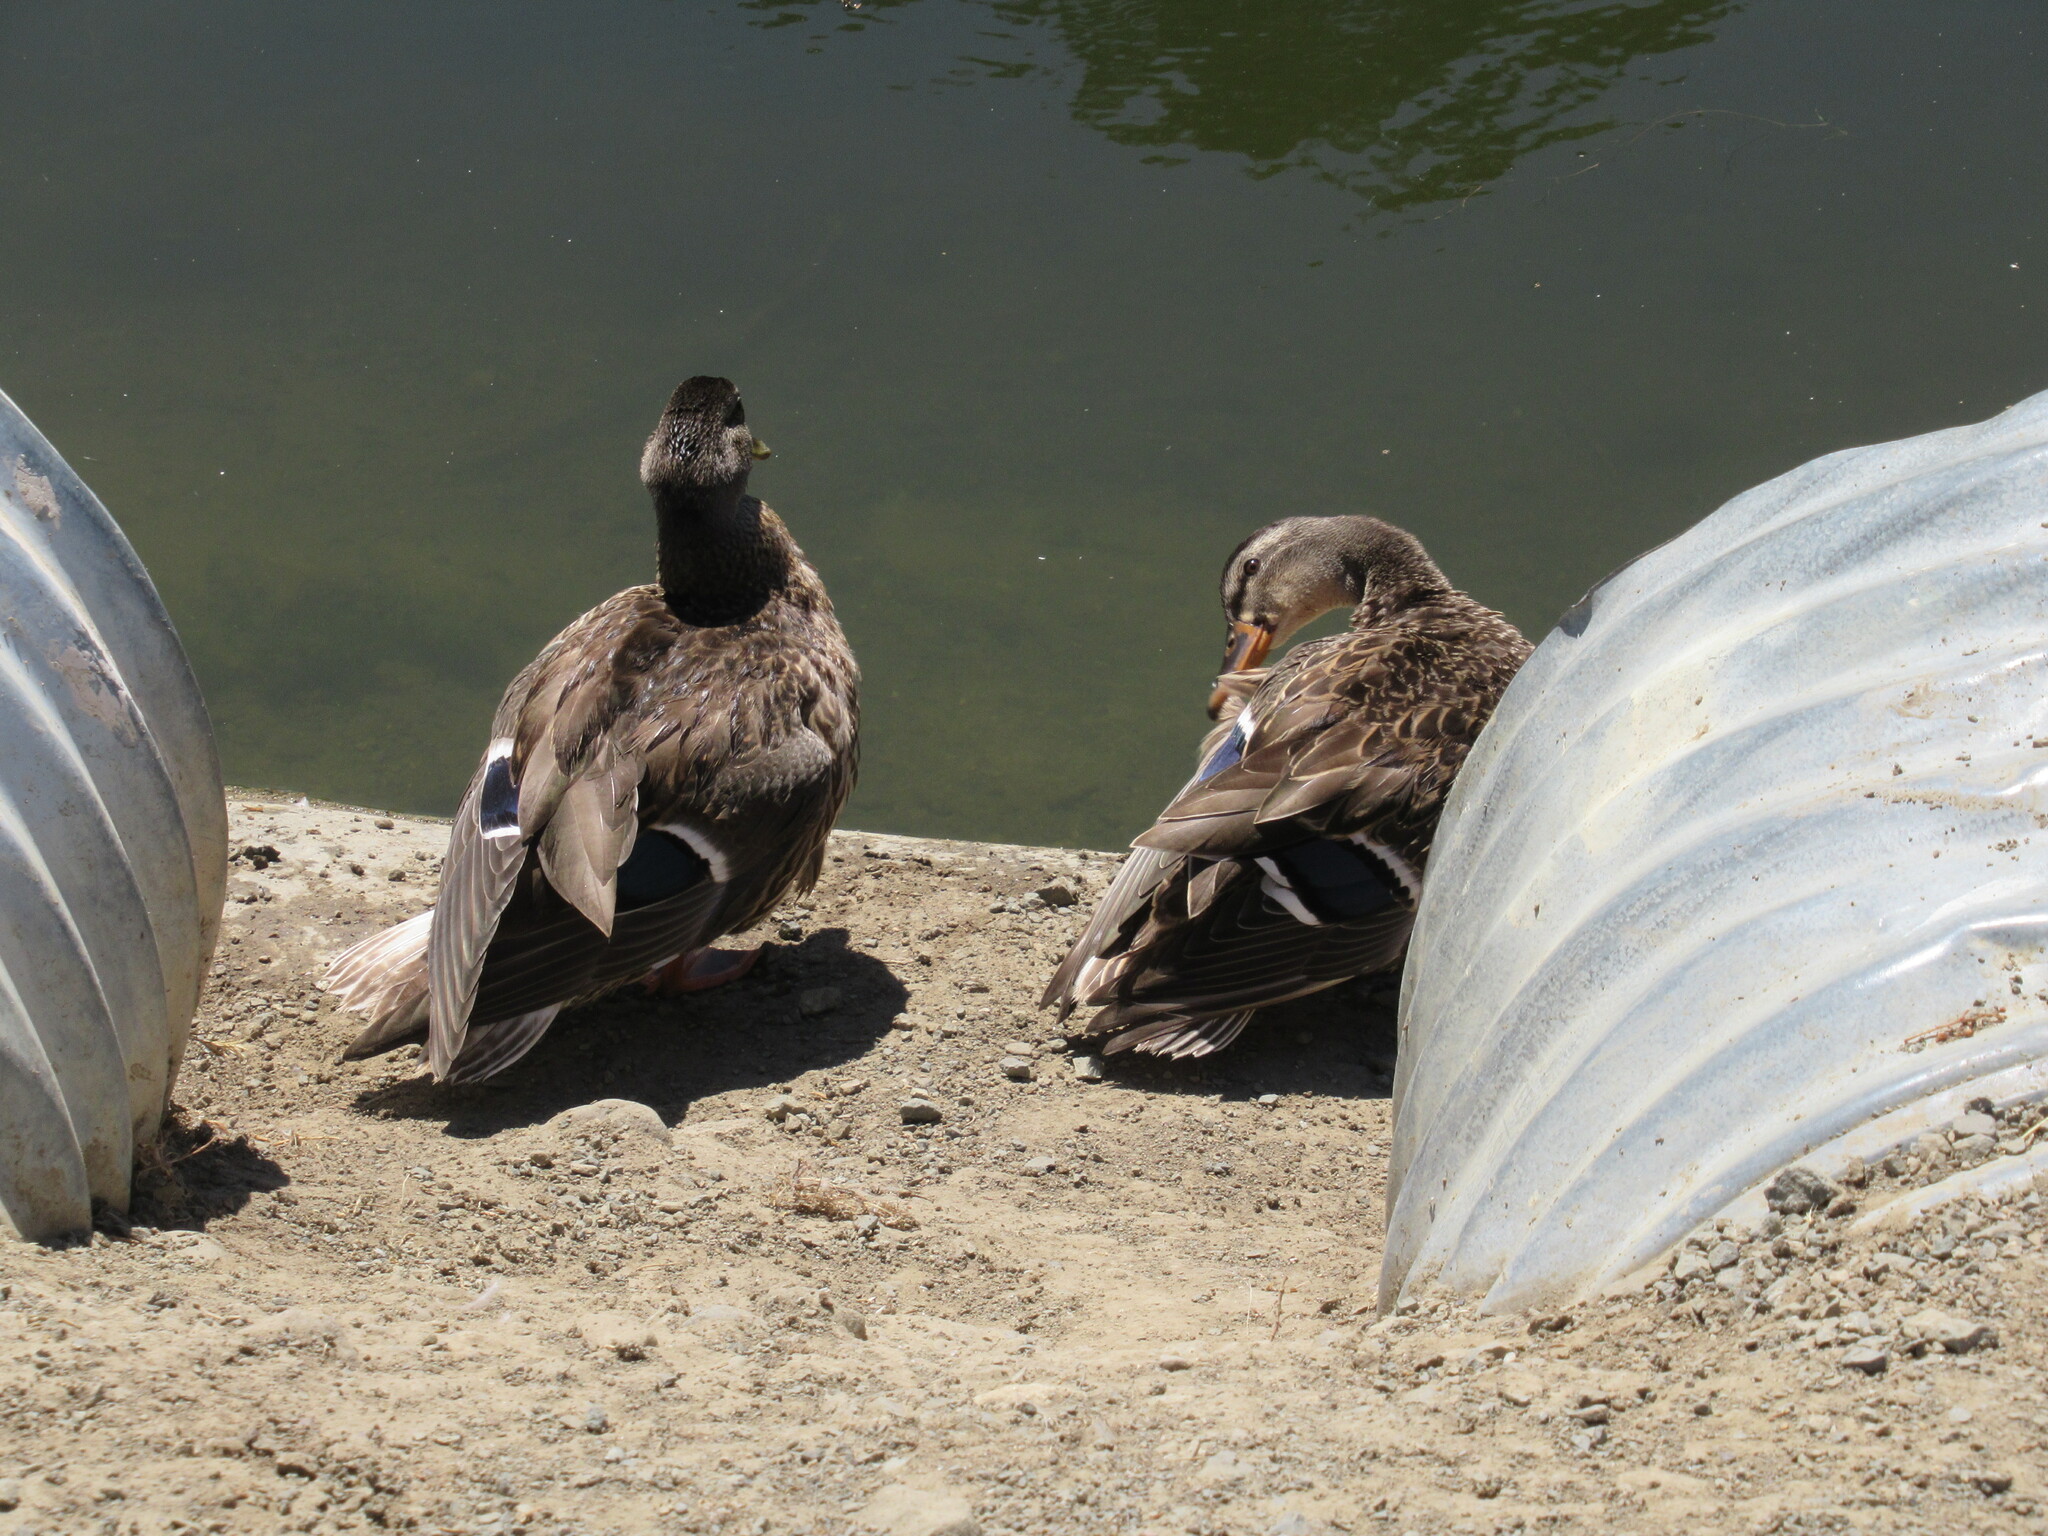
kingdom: Animalia
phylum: Chordata
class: Aves
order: Anseriformes
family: Anatidae
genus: Anas
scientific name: Anas platyrhynchos
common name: Mallard
